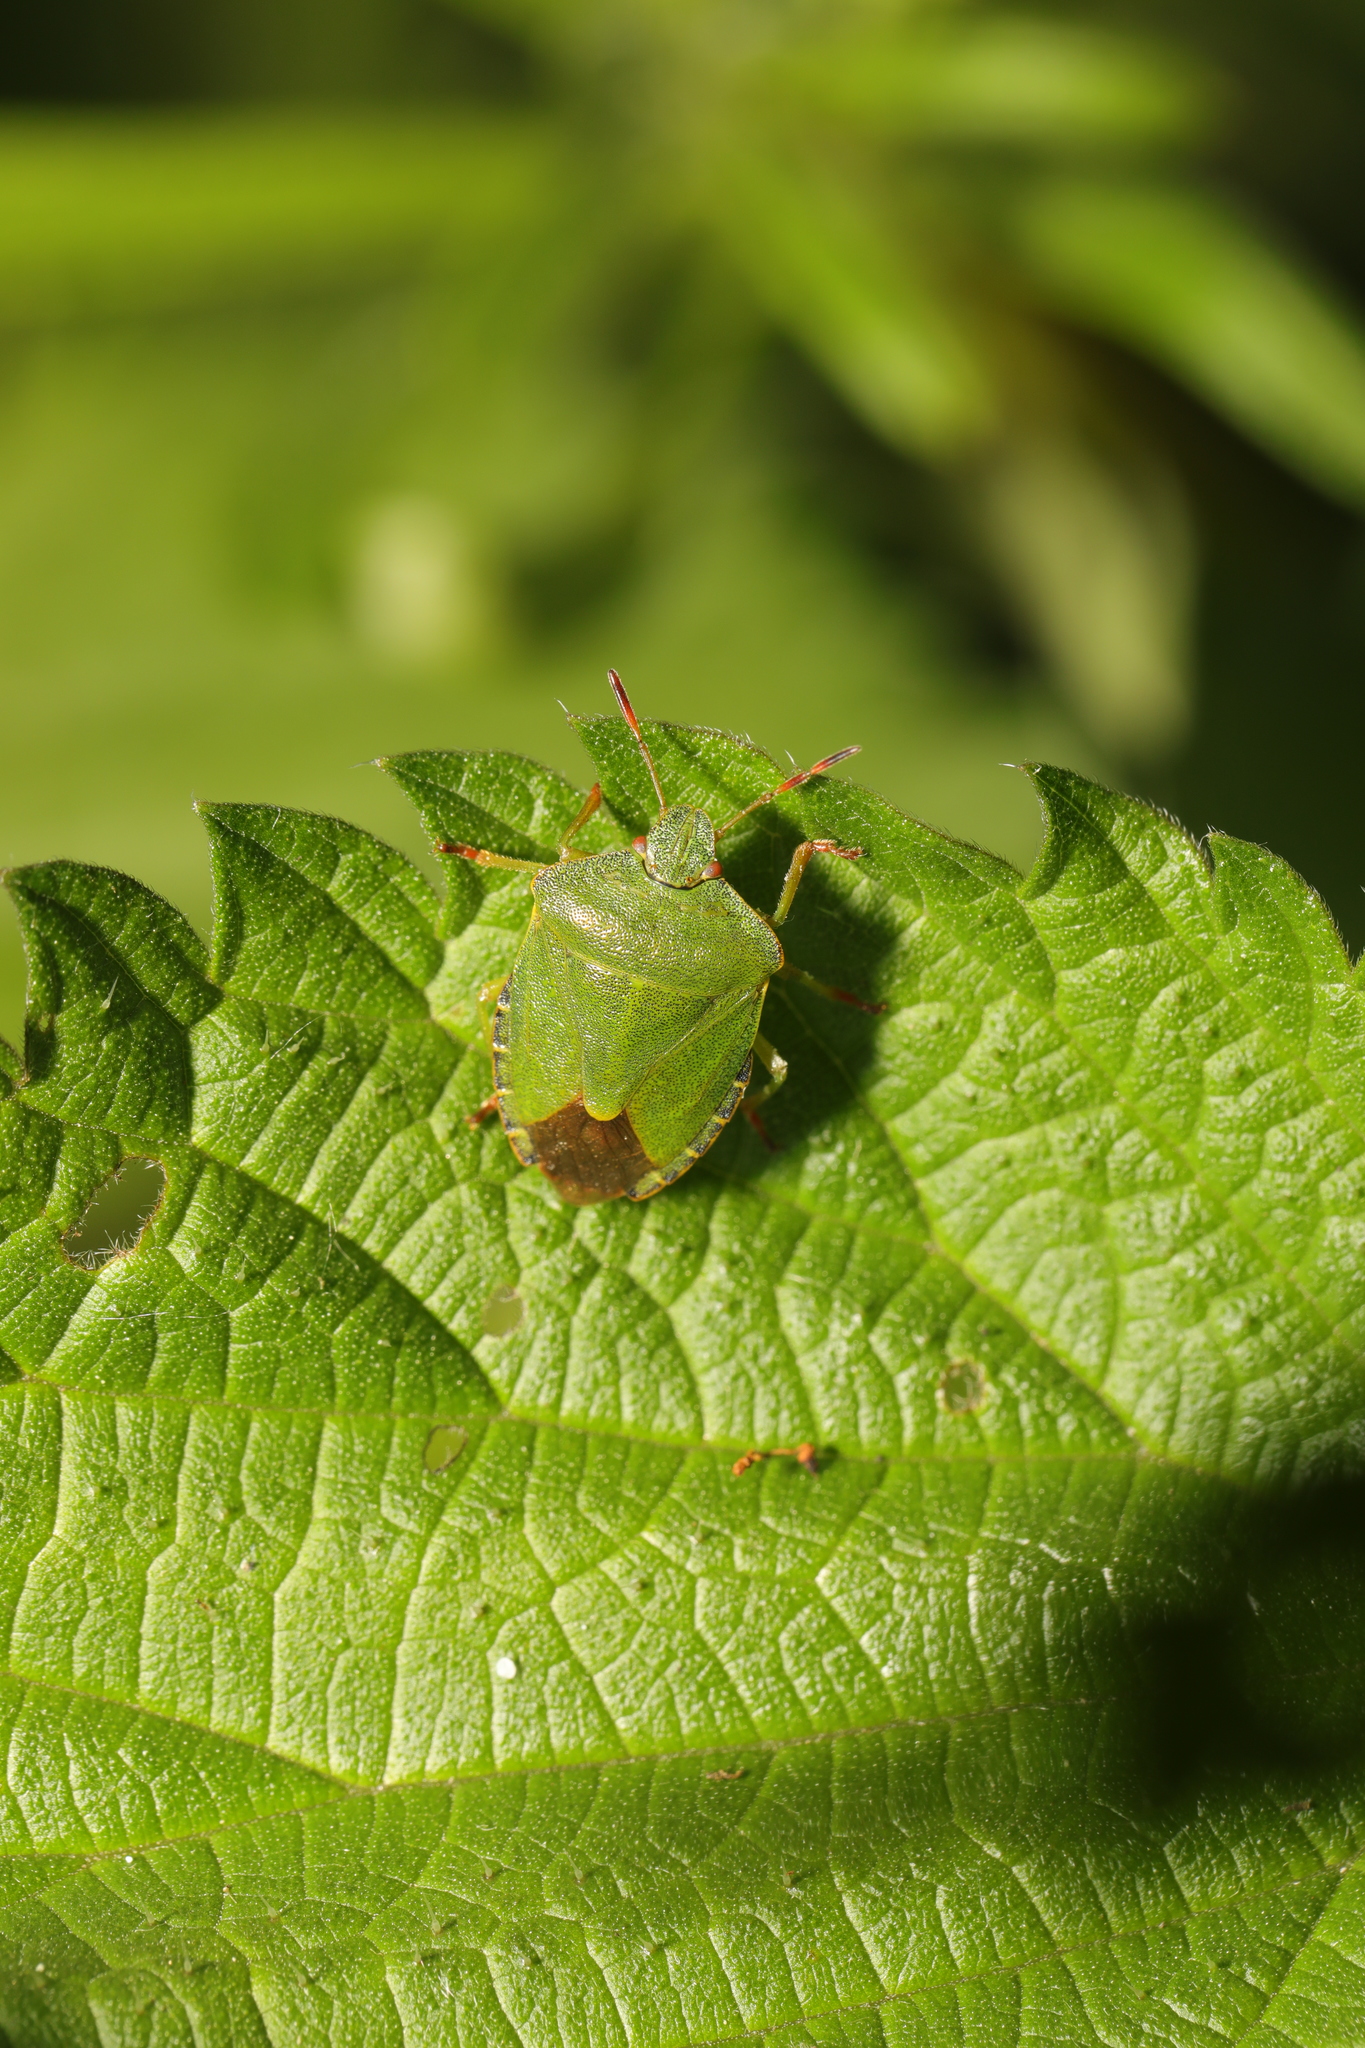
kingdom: Animalia
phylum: Arthropoda
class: Insecta
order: Hemiptera
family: Pentatomidae
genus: Palomena
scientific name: Palomena prasina
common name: Green shieldbug
